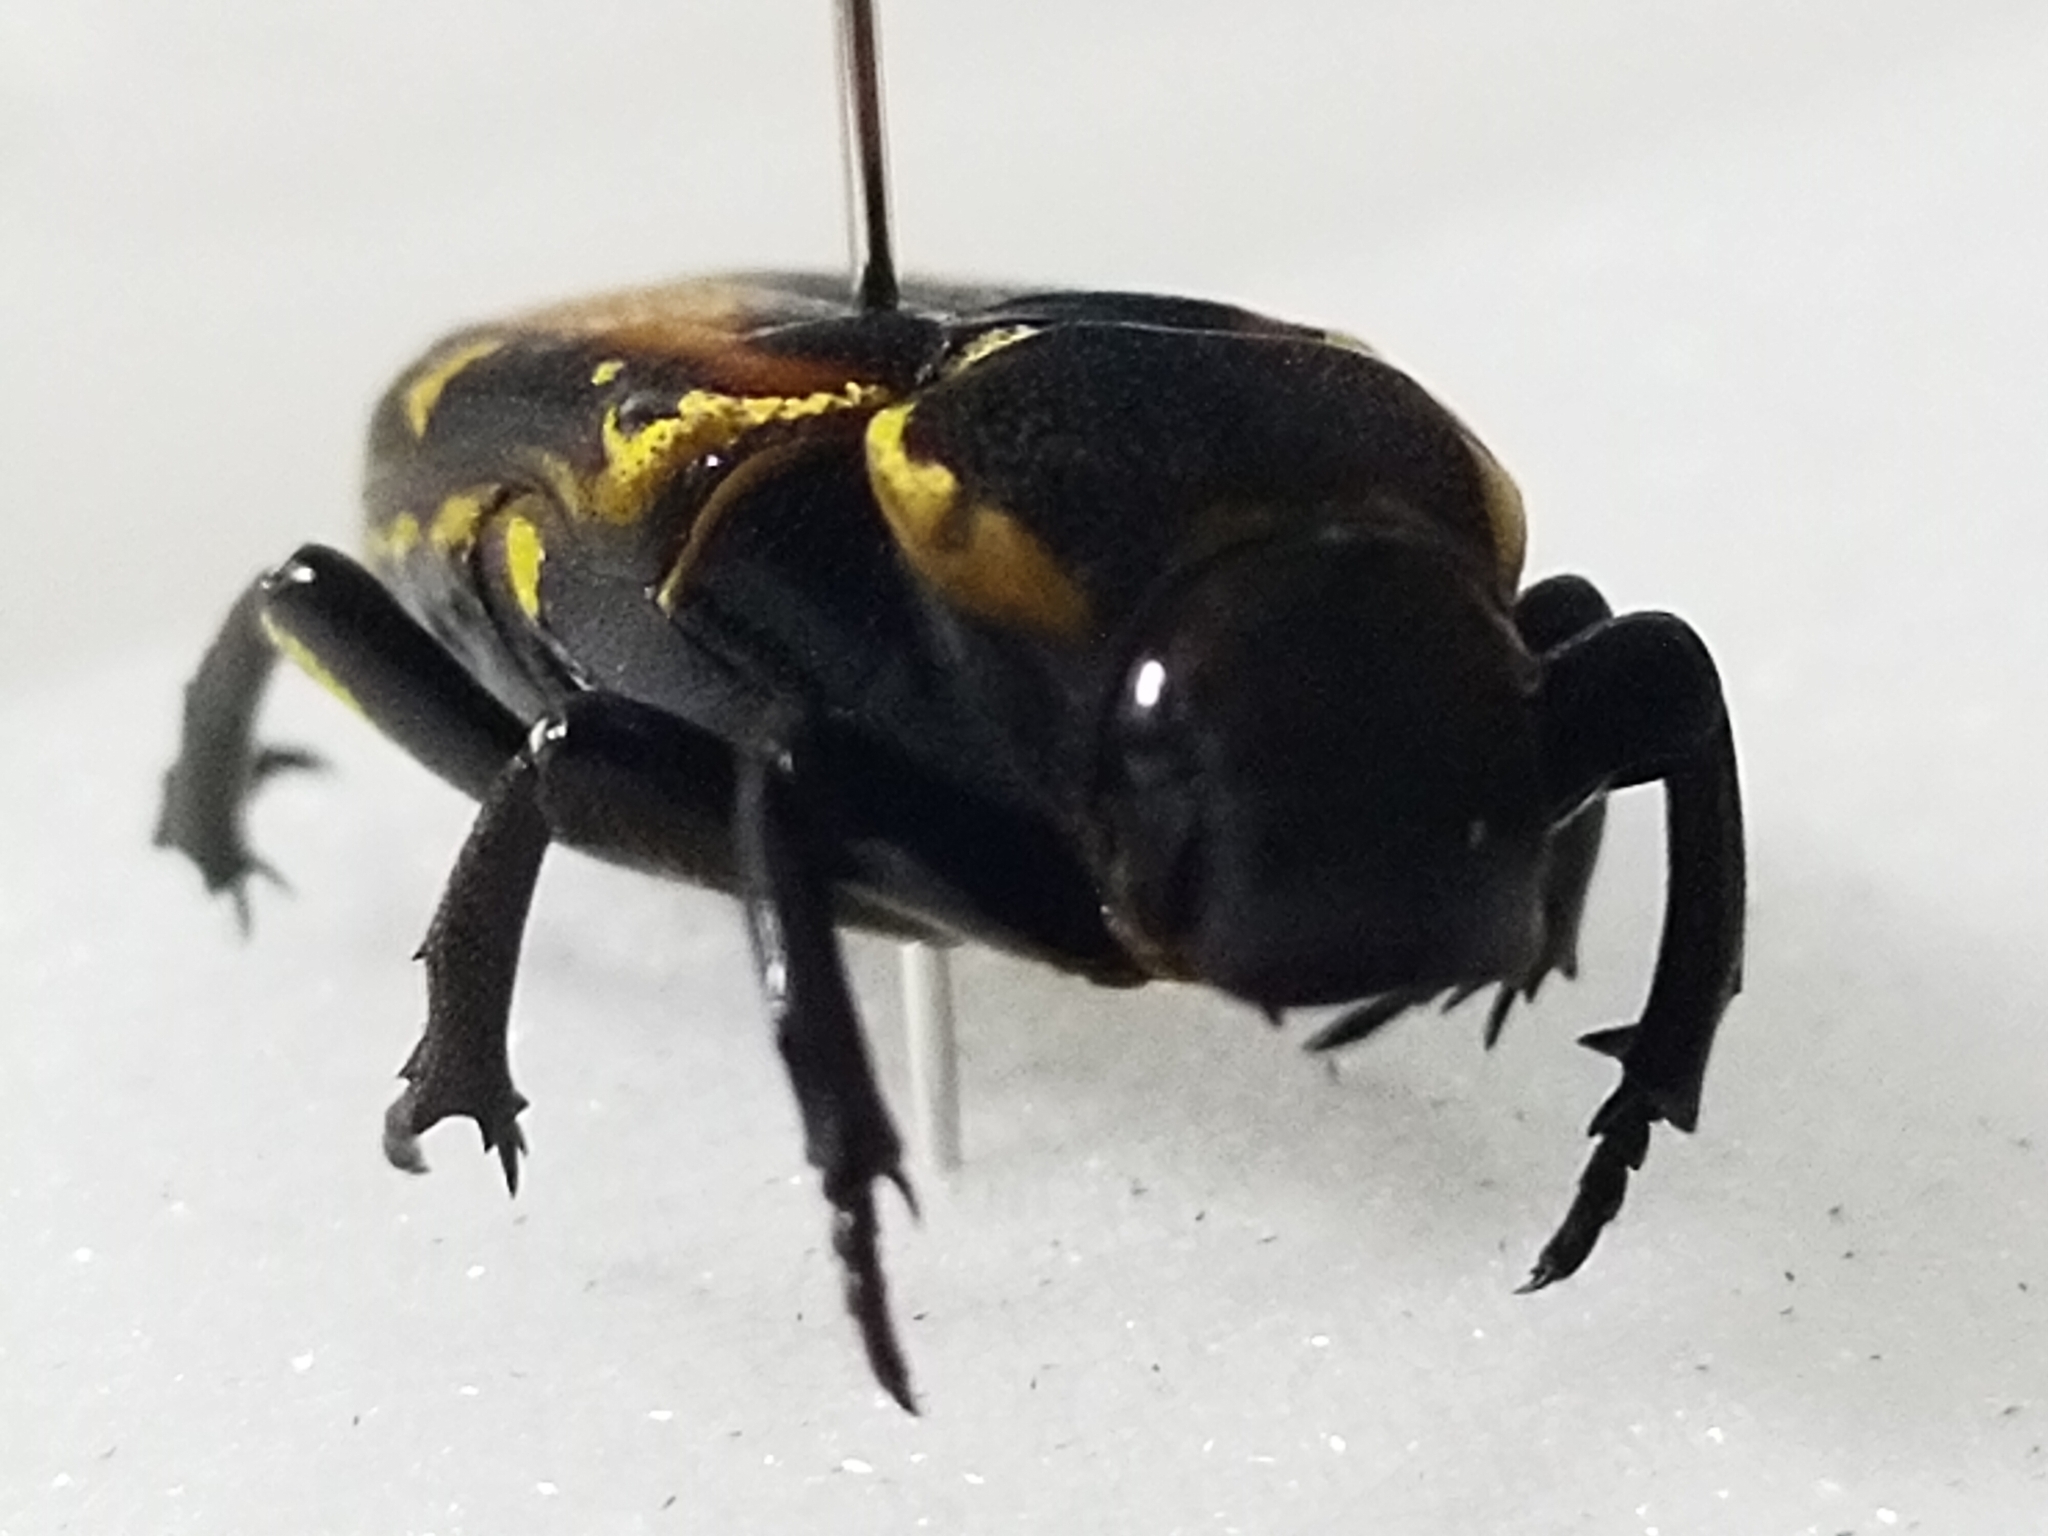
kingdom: Animalia
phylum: Arthropoda
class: Insecta
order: Coleoptera
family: Scarabaeidae
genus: Clinterocera
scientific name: Clinterocera nigra
